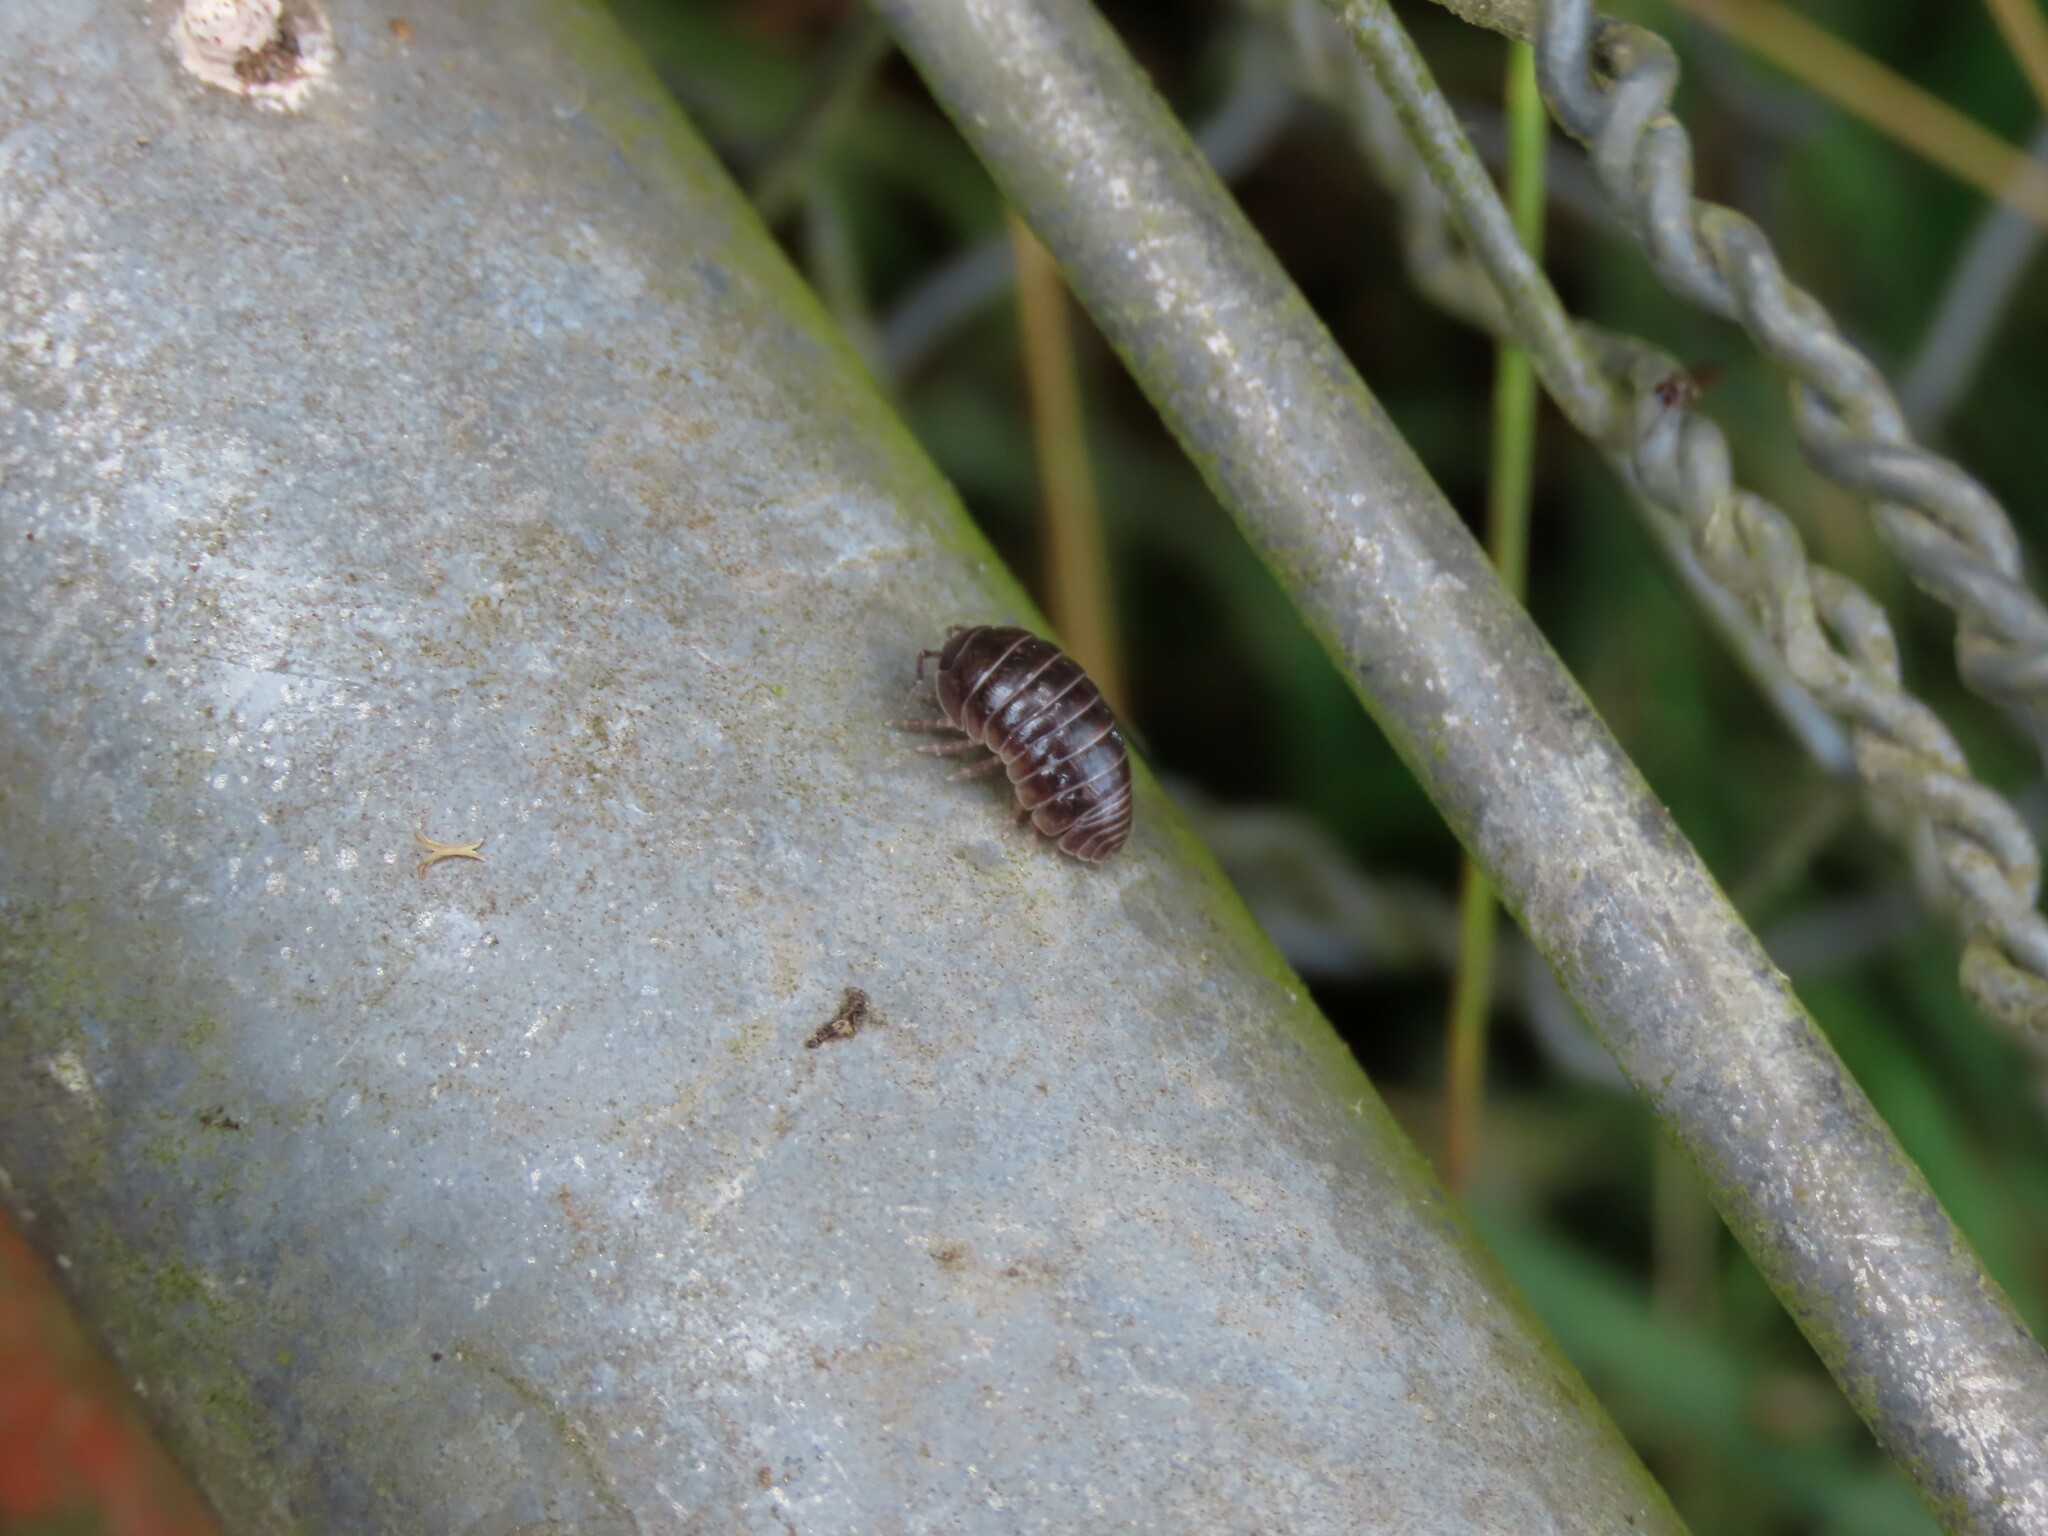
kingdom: Animalia
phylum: Arthropoda
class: Malacostraca
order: Isopoda
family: Armadillidiidae
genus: Armadillidium
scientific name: Armadillidium vulgare
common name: Common pill woodlouse
